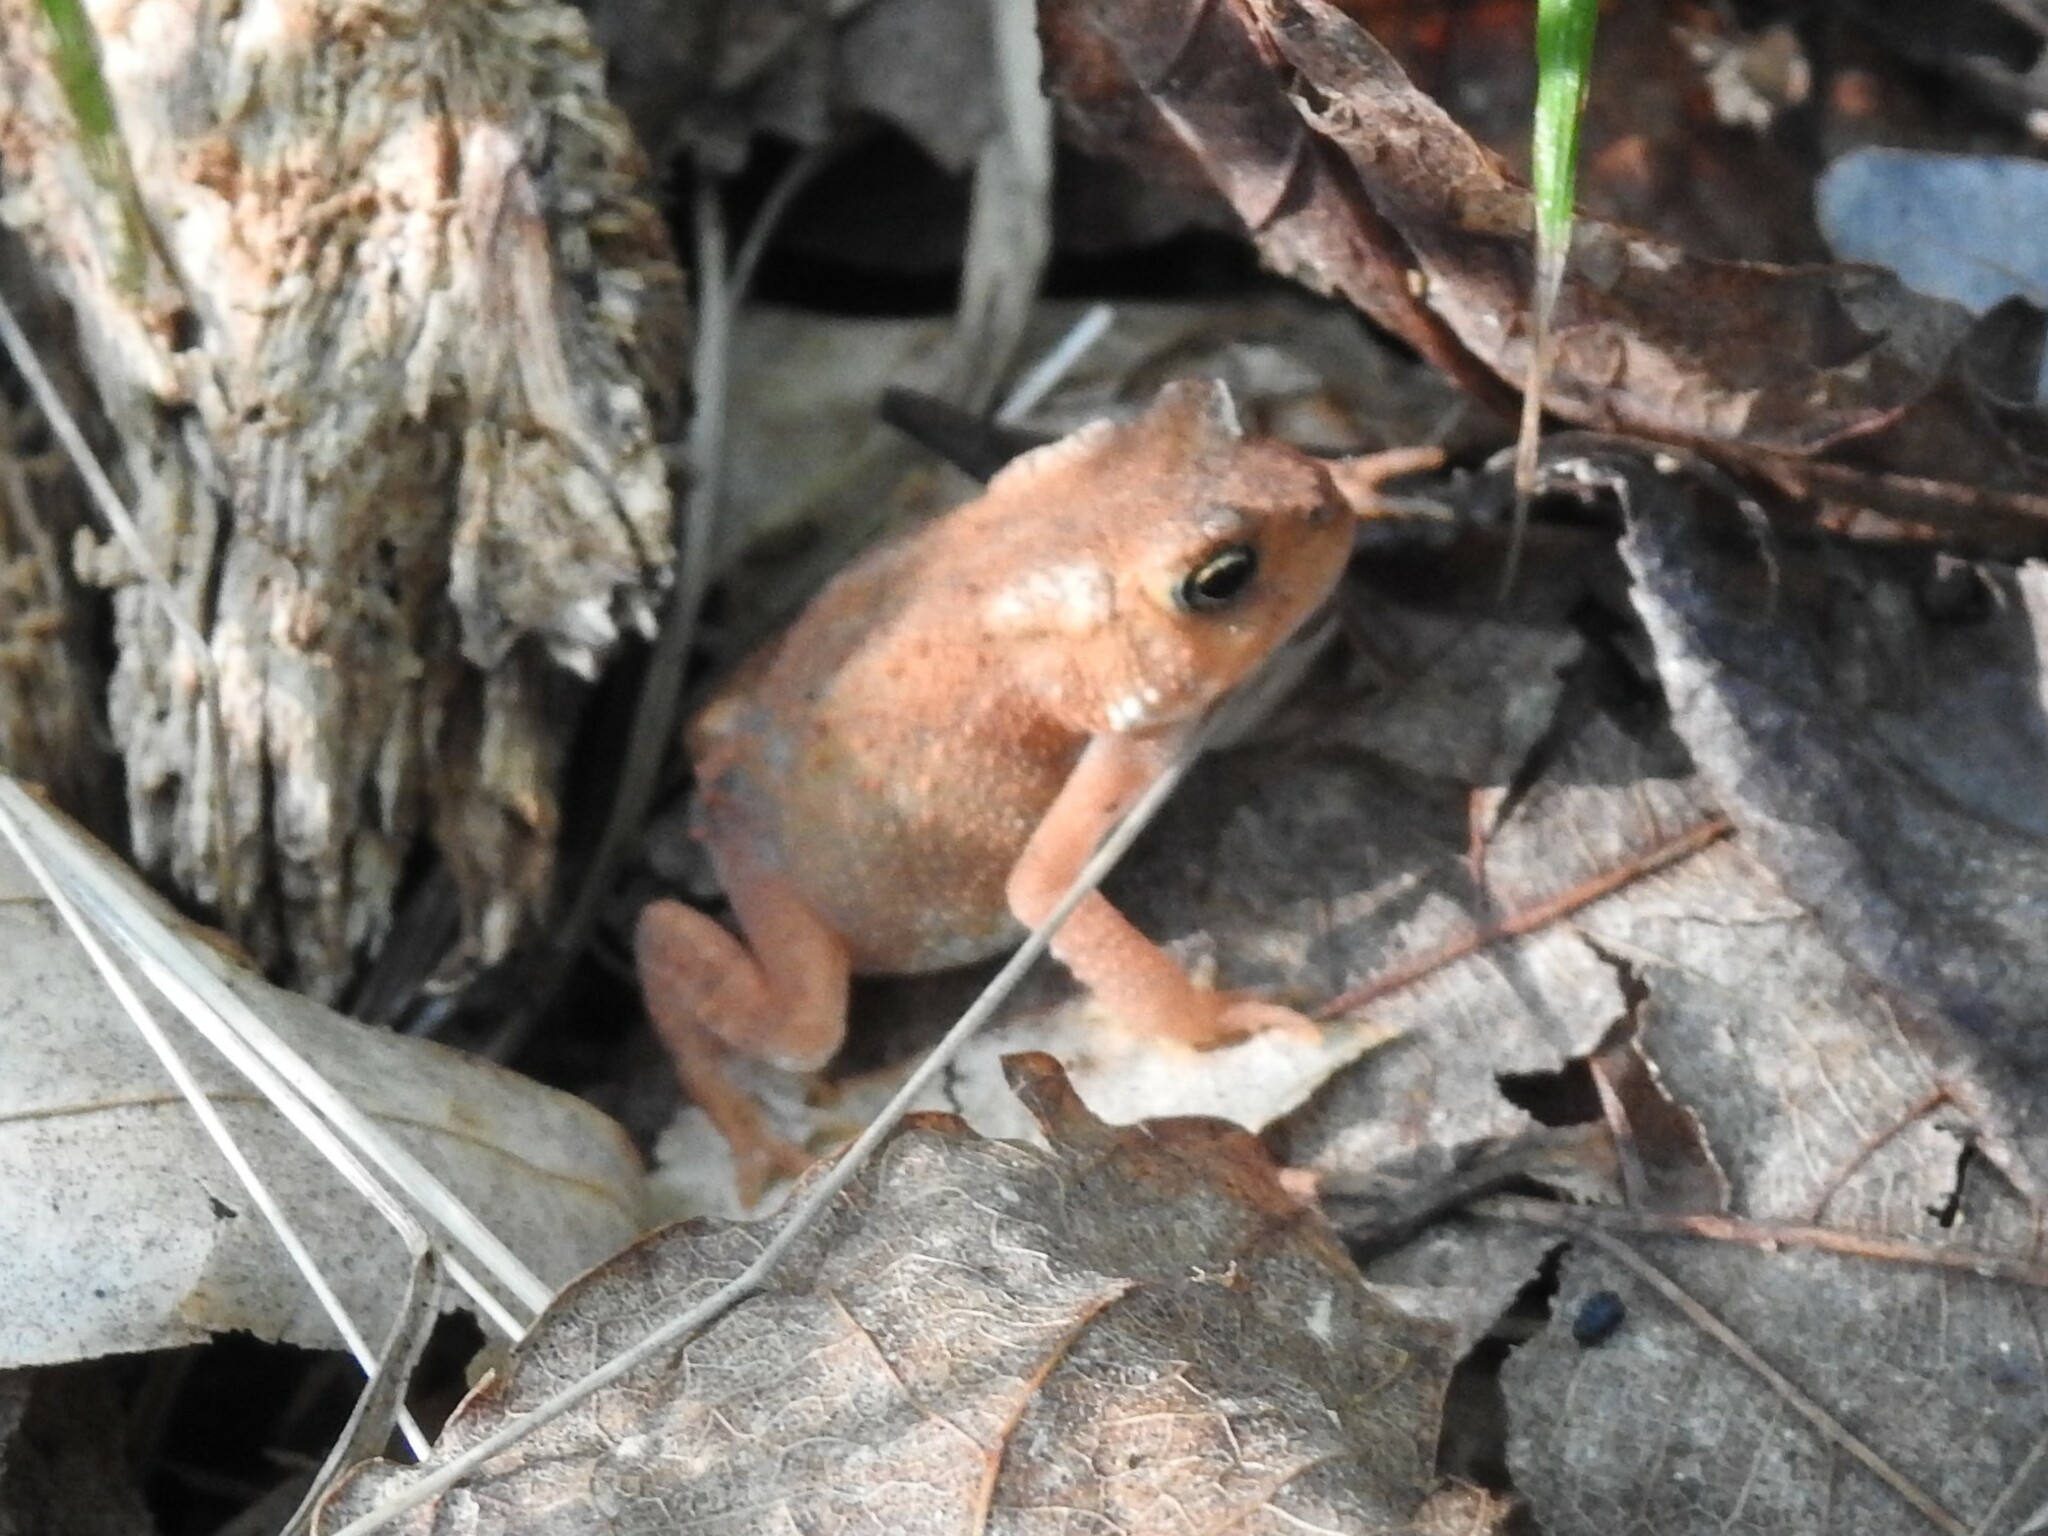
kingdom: Animalia
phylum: Chordata
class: Amphibia
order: Anura
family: Bufonidae
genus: Anaxyrus
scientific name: Anaxyrus americanus
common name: American toad
